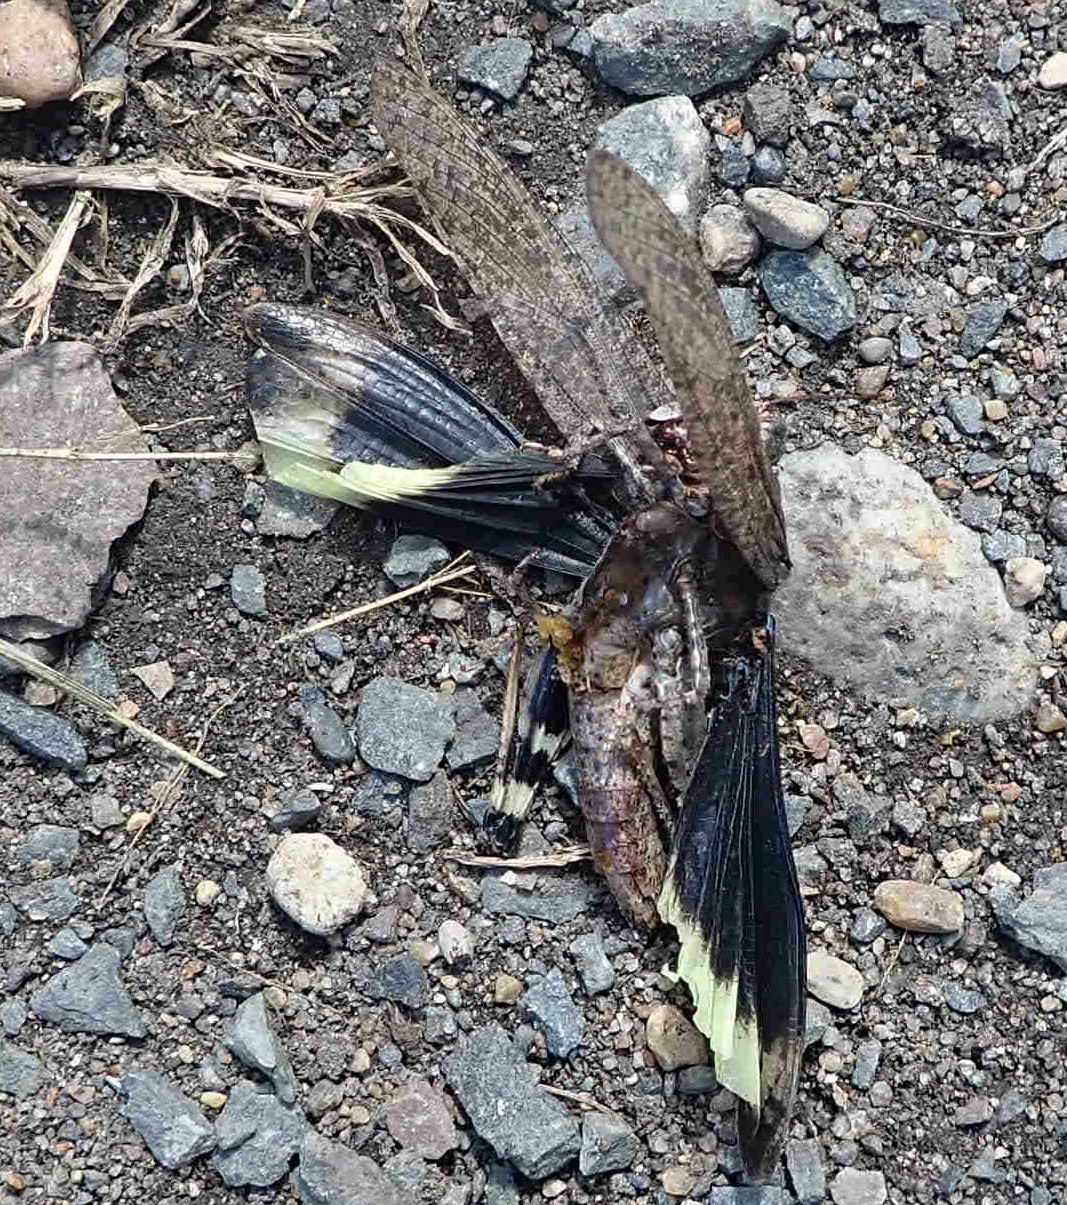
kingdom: Animalia
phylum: Arthropoda
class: Insecta
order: Orthoptera
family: Acrididae
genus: Dissosteira
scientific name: Dissosteira carolina
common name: Carolina grasshopper
